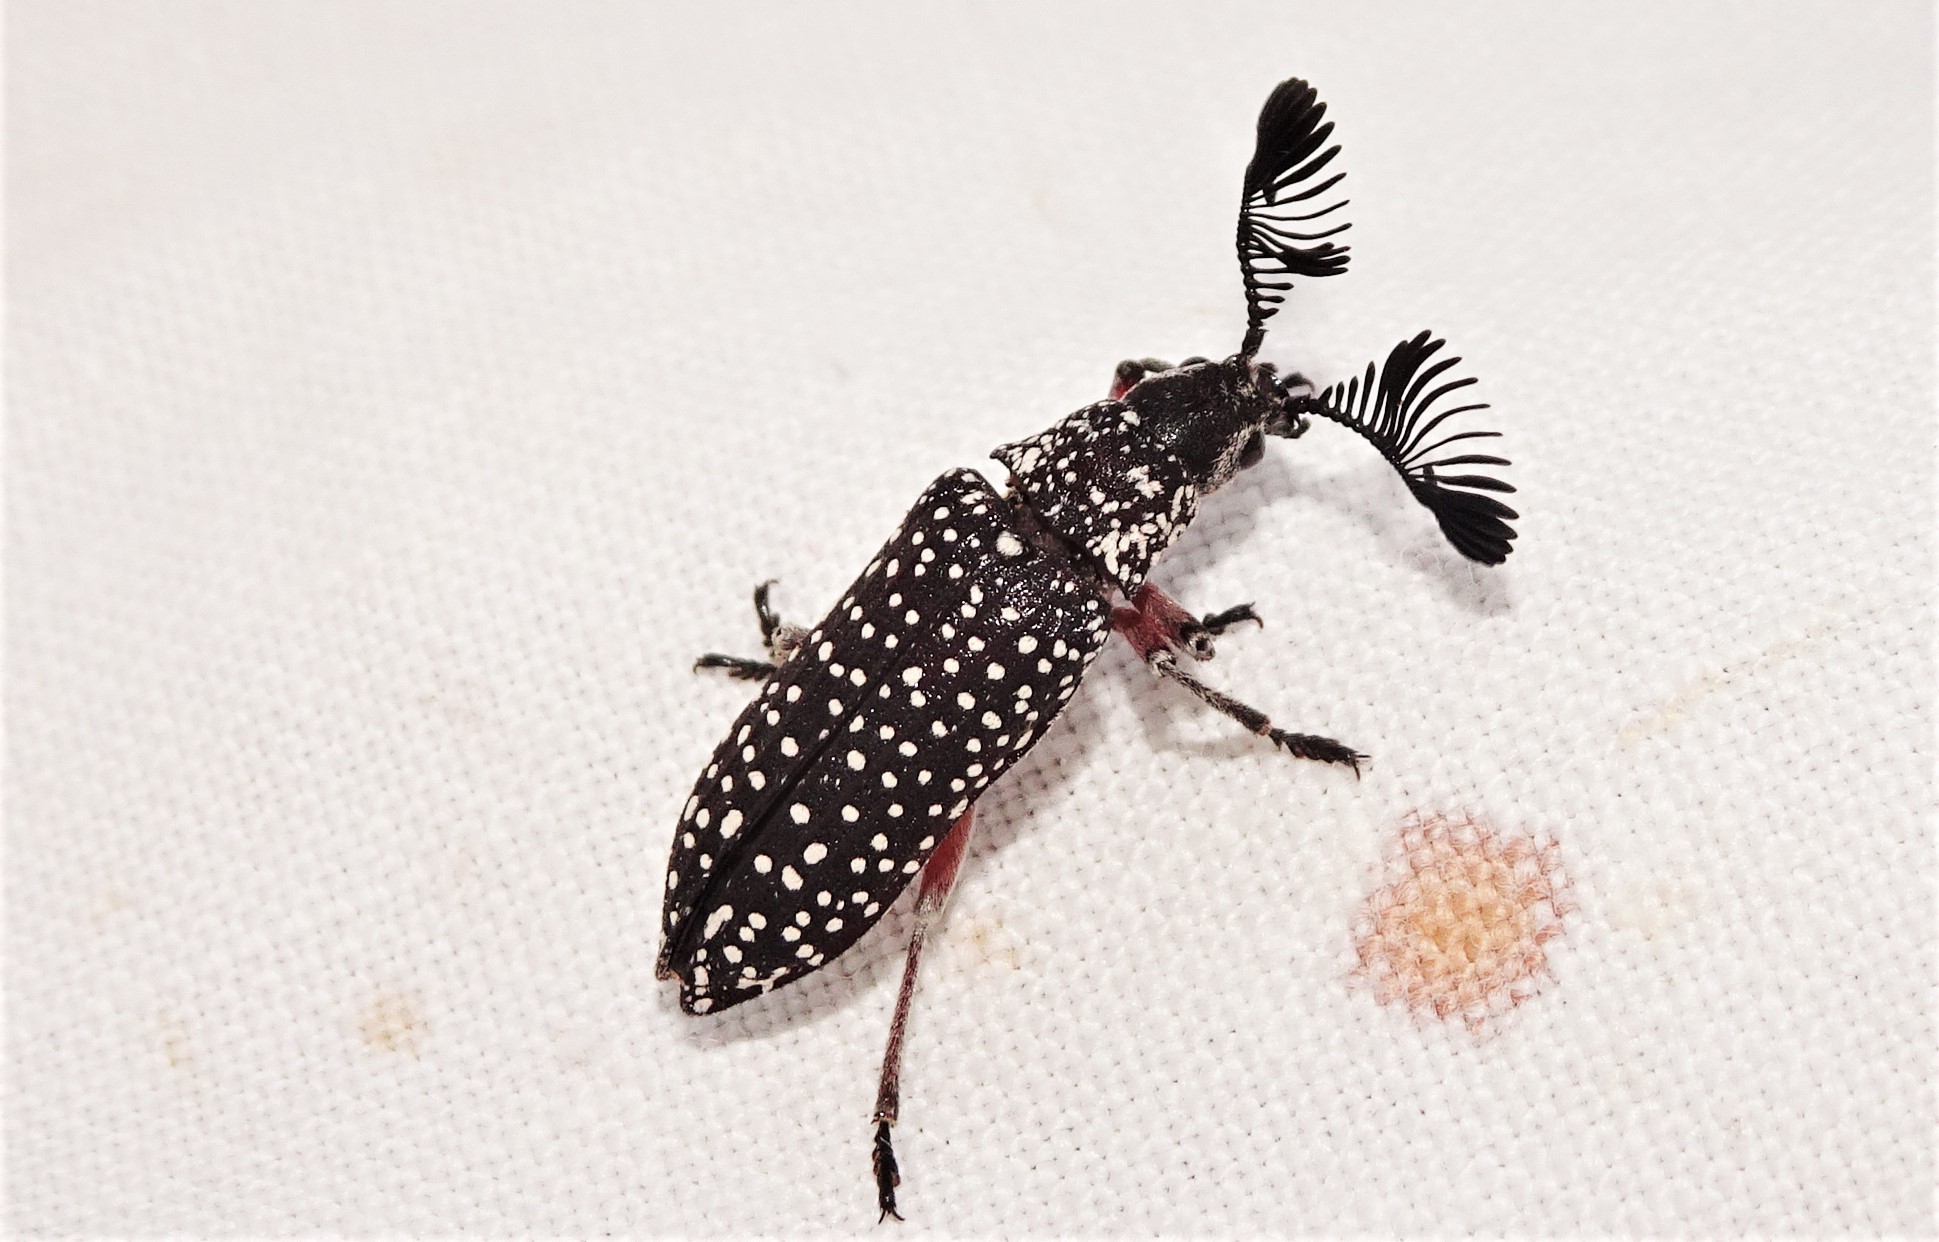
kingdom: Animalia
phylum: Arthropoda
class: Insecta
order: Coleoptera
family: Rhipiceridae
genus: Rhipicera
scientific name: Rhipicera
